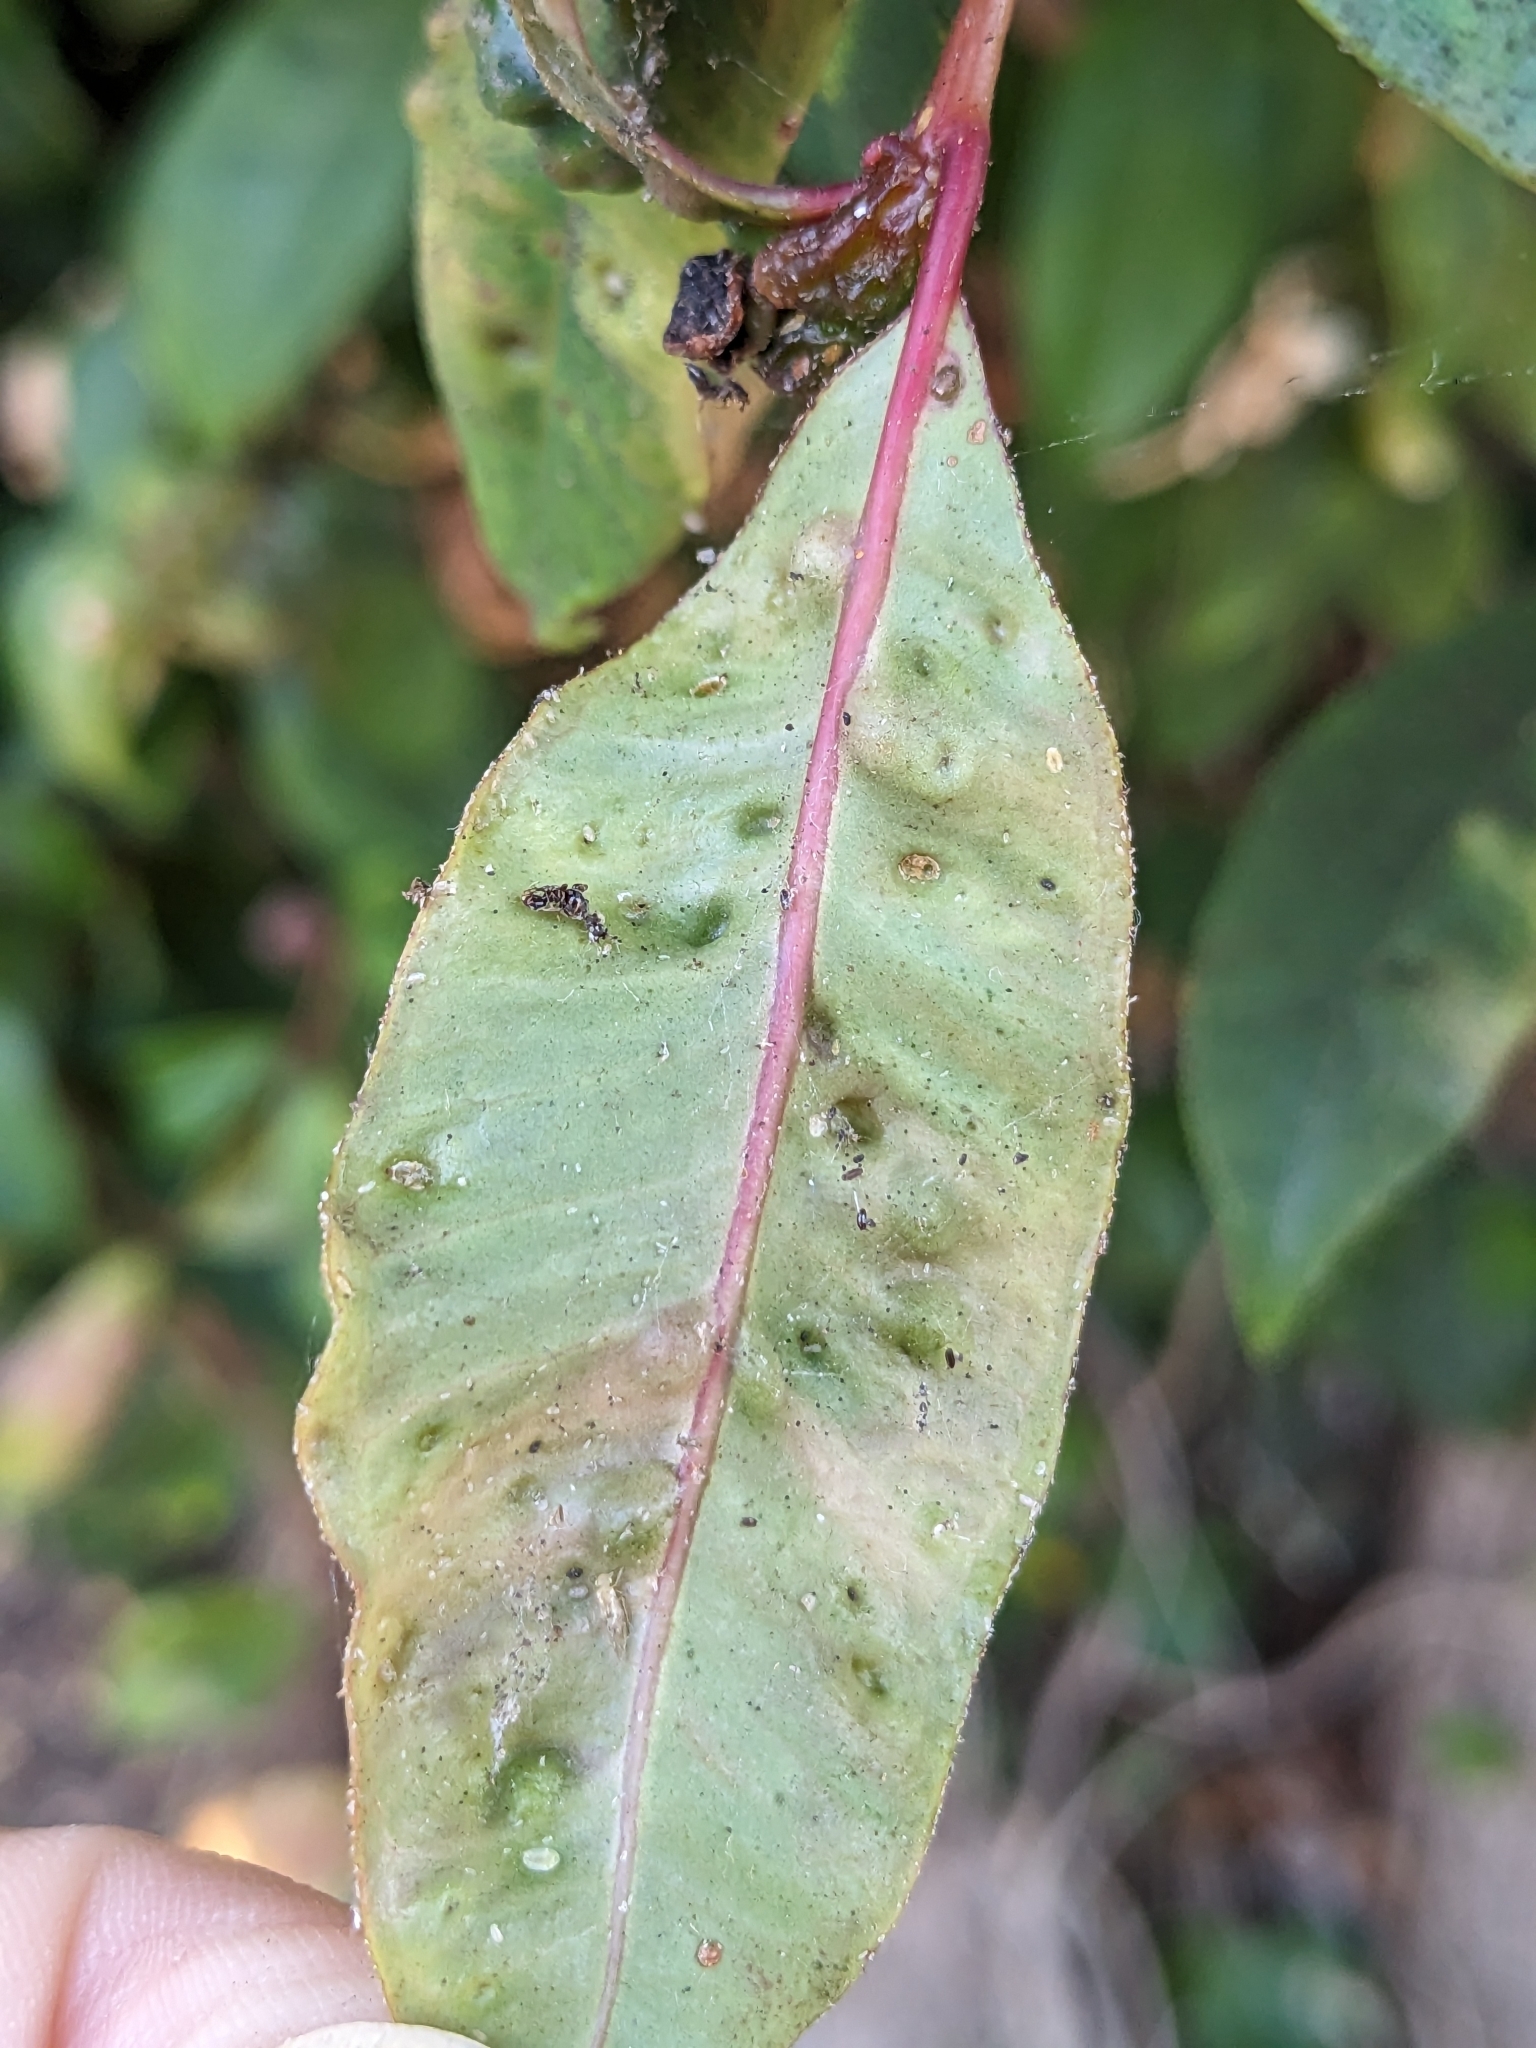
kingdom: Animalia
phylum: Arthropoda
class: Insecta
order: Hemiptera
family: Triozidae
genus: Trioza
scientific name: Trioza adventicia
